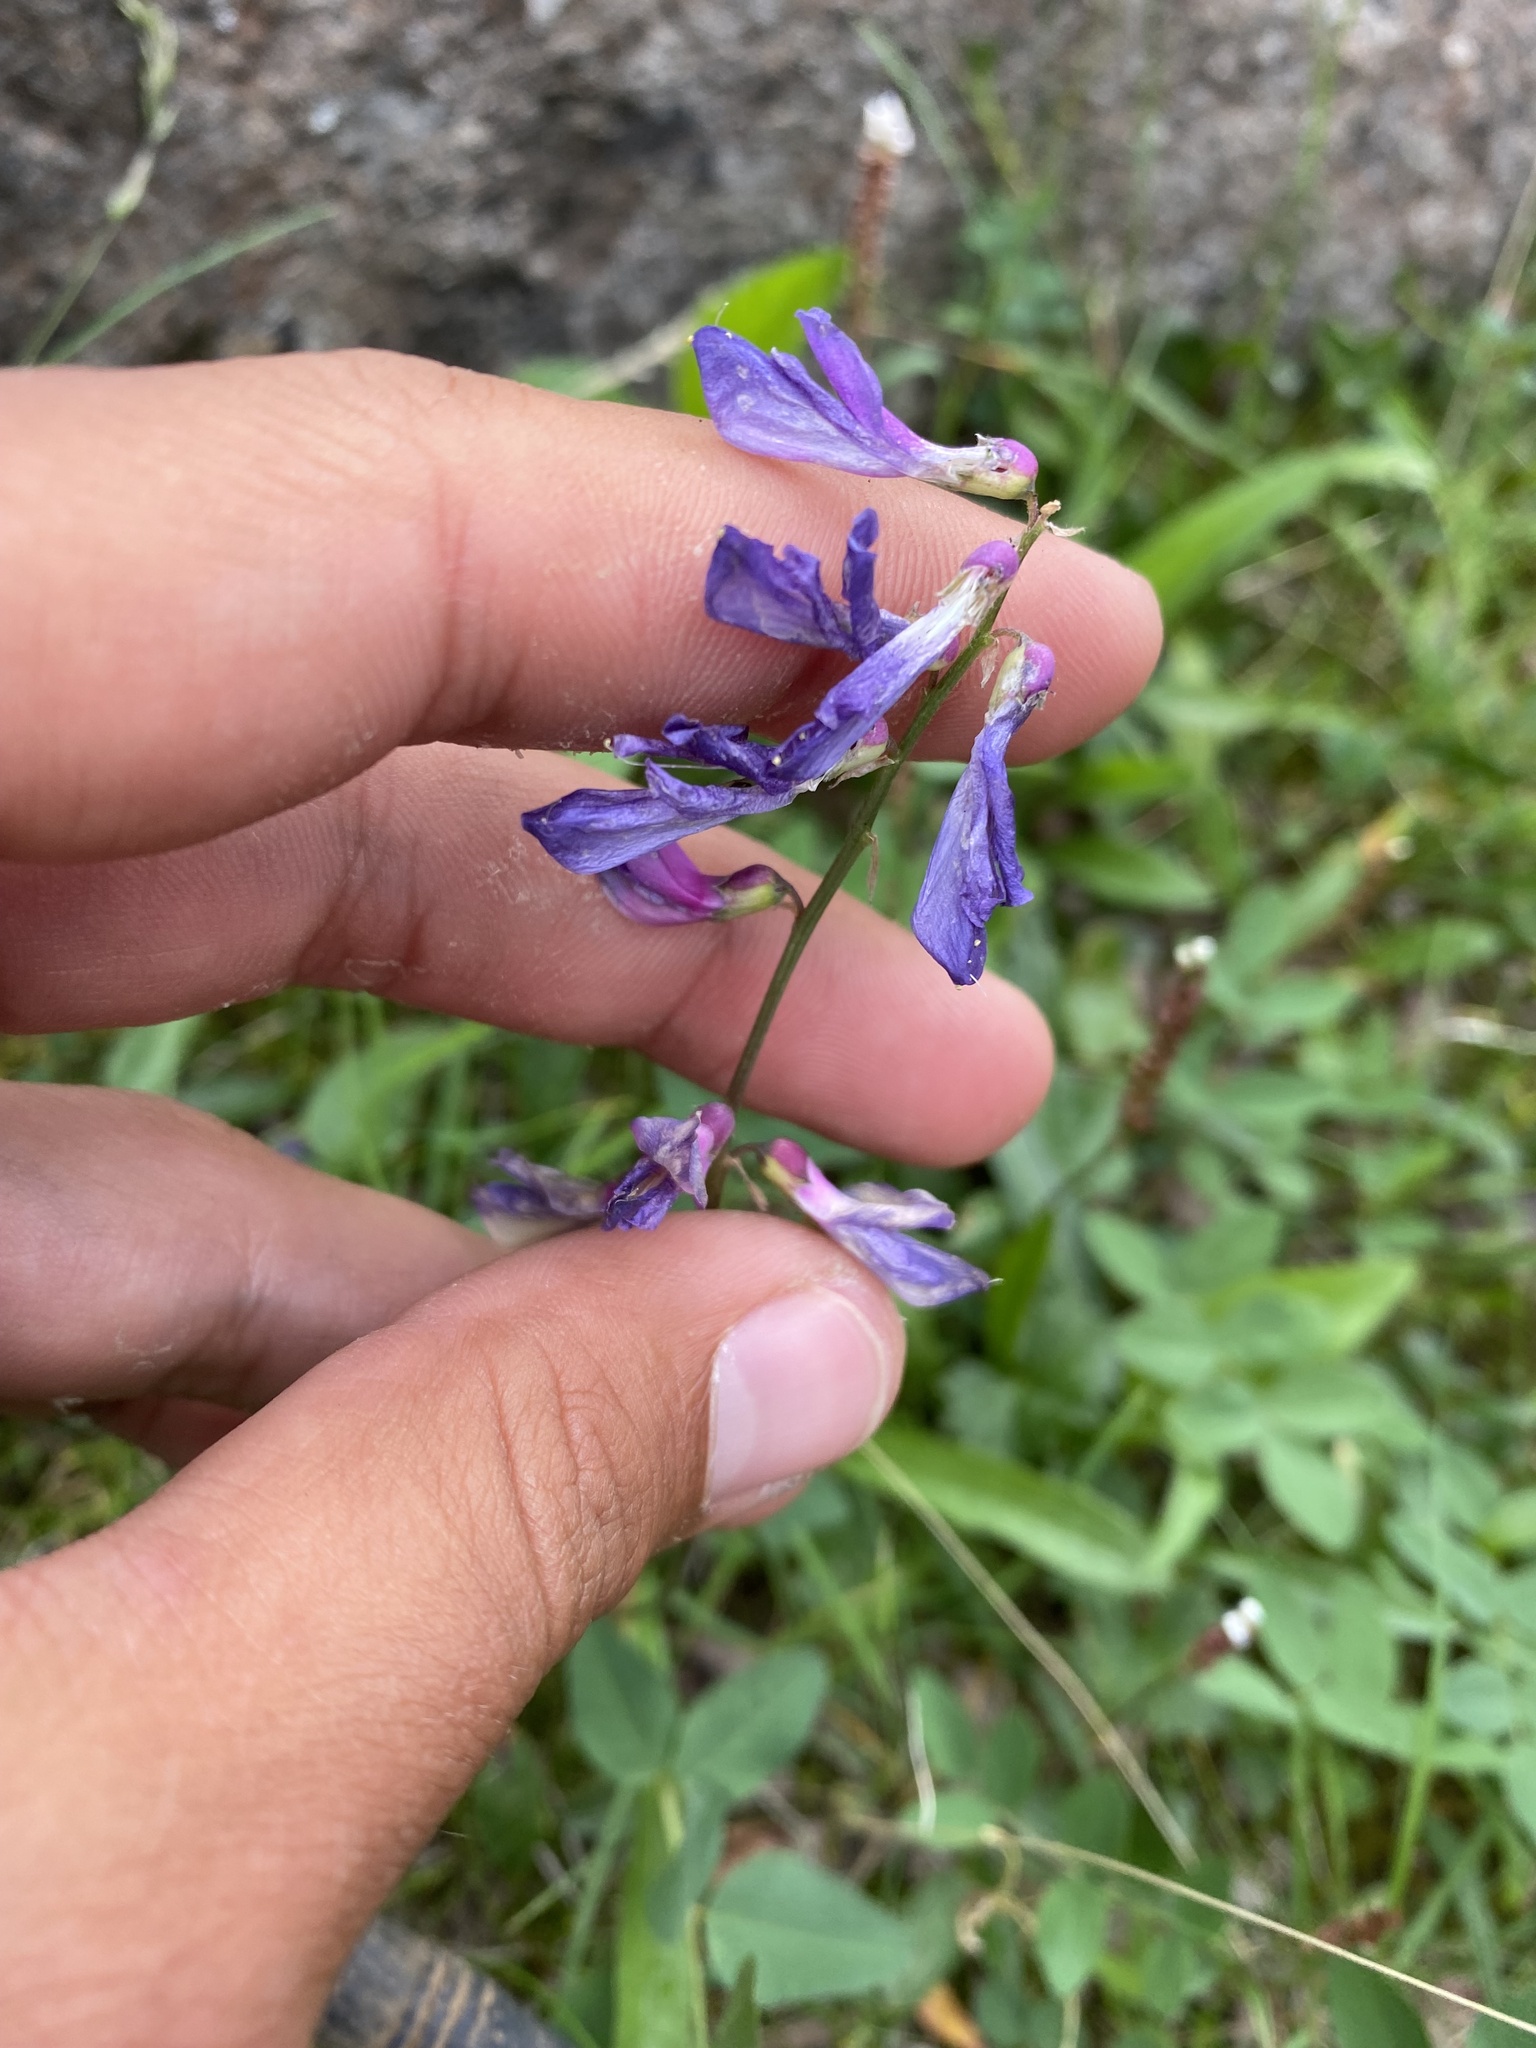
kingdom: Plantae
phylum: Tracheophyta
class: Magnoliopsida
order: Fabales
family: Fabaceae
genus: Hedysarum
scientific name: Hedysarum hedysaroides
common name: Alpine french-honeysuckle
